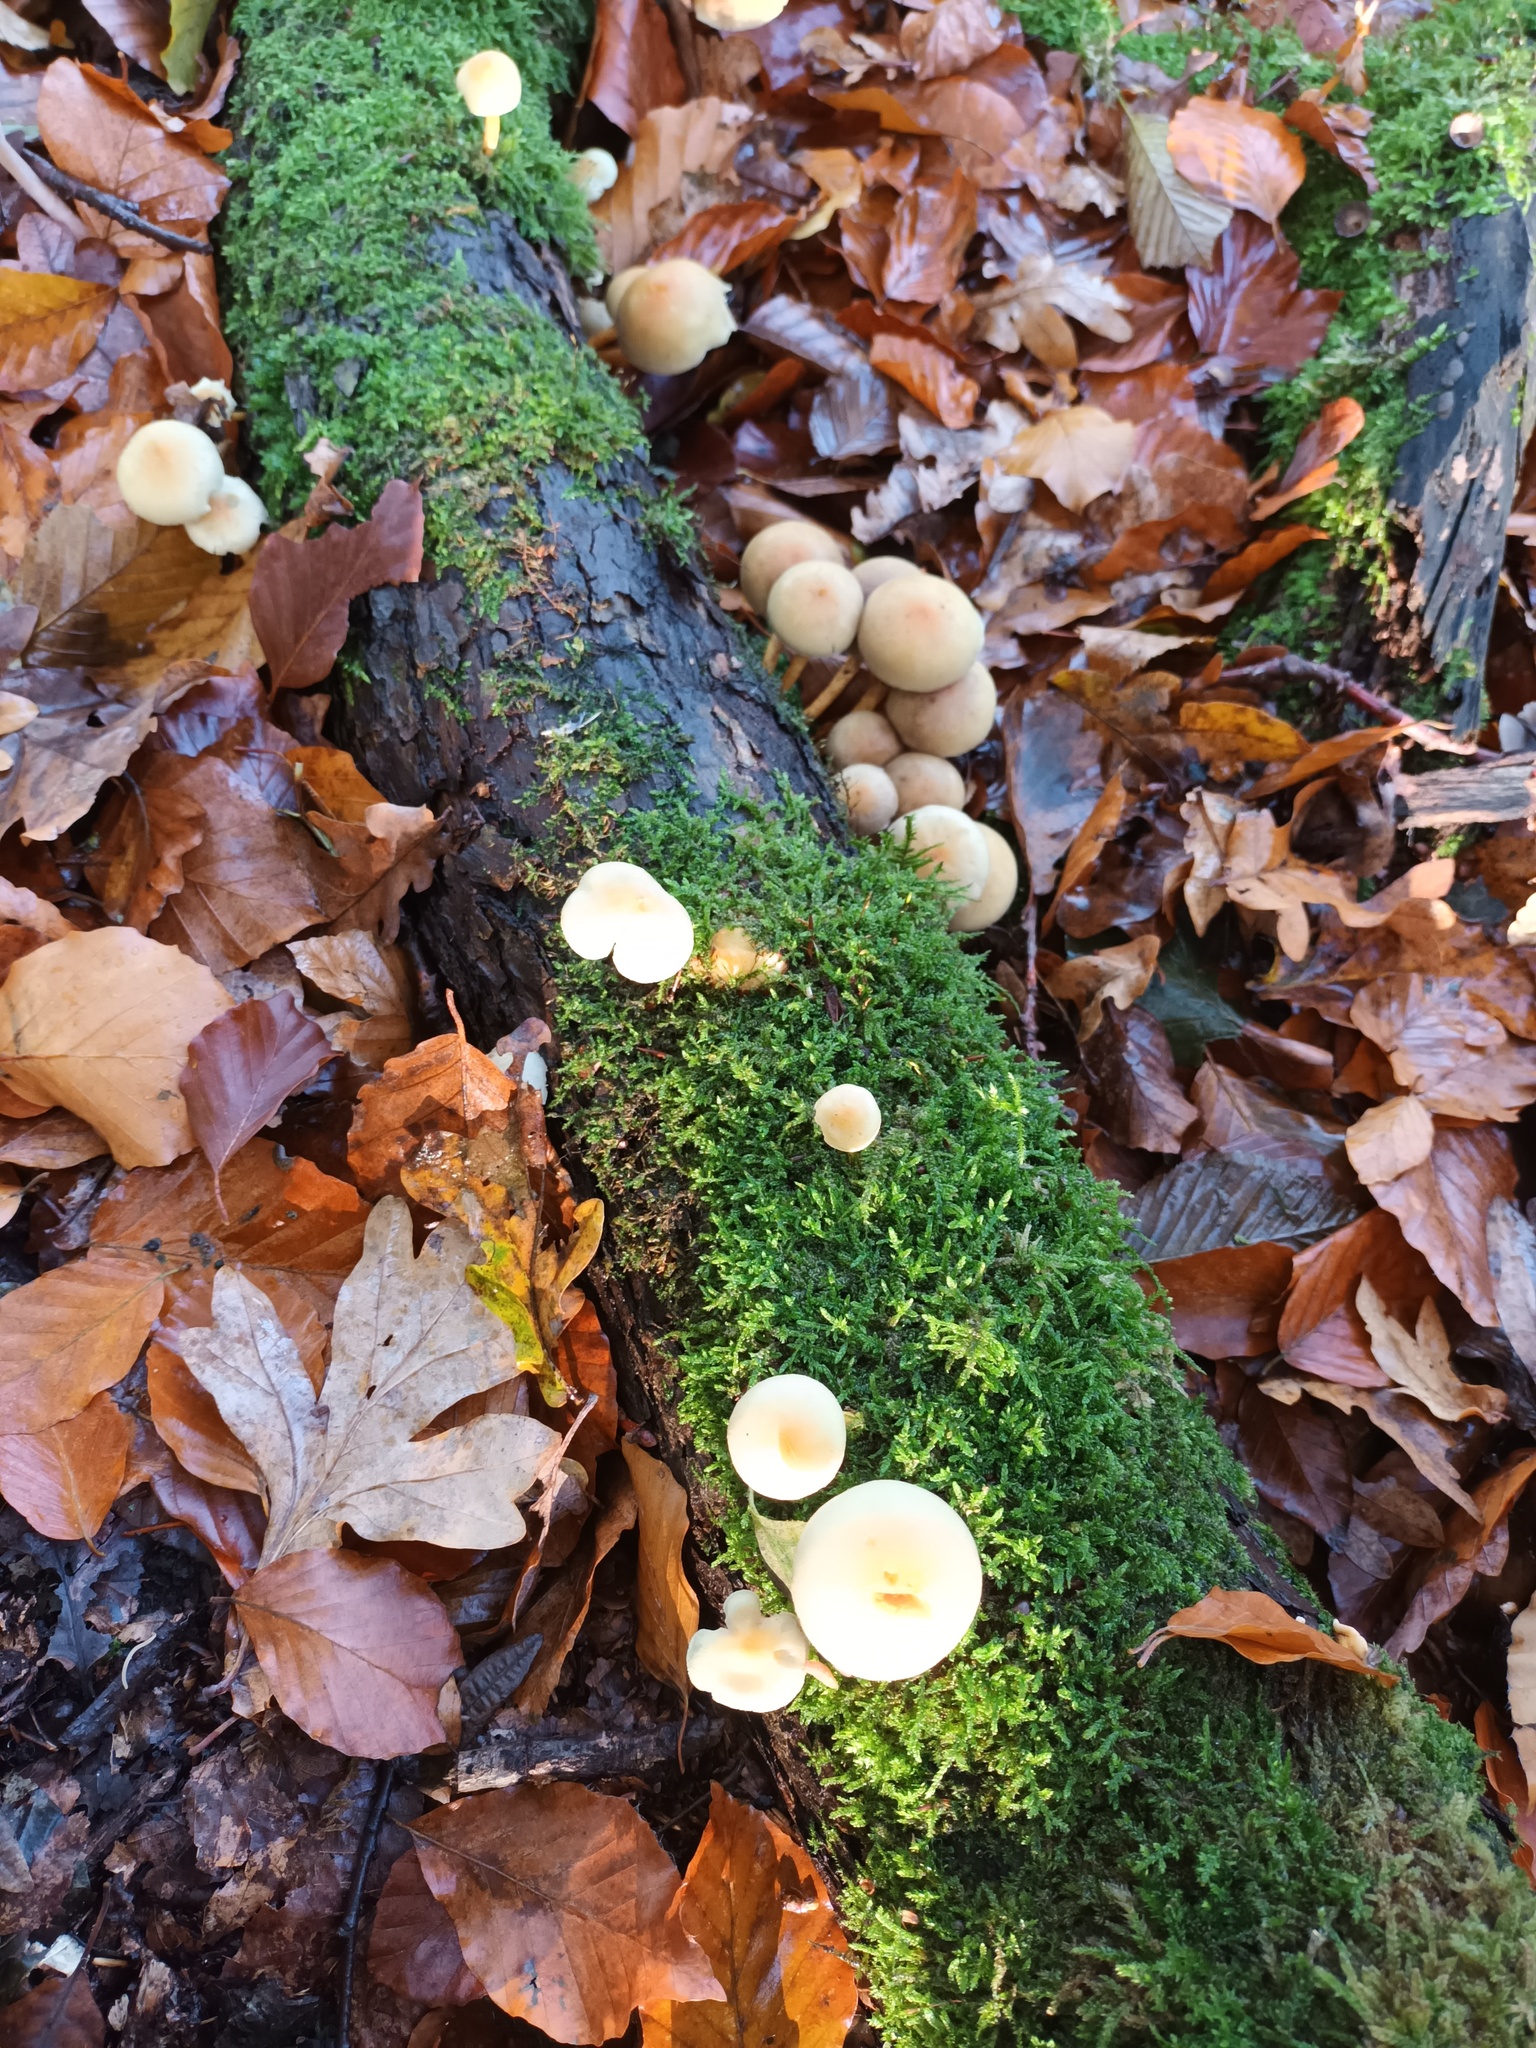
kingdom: Fungi
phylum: Basidiomycota
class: Agaricomycetes
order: Agaricales
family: Strophariaceae
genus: Hypholoma
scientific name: Hypholoma fasciculare
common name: Sulphur tuft
